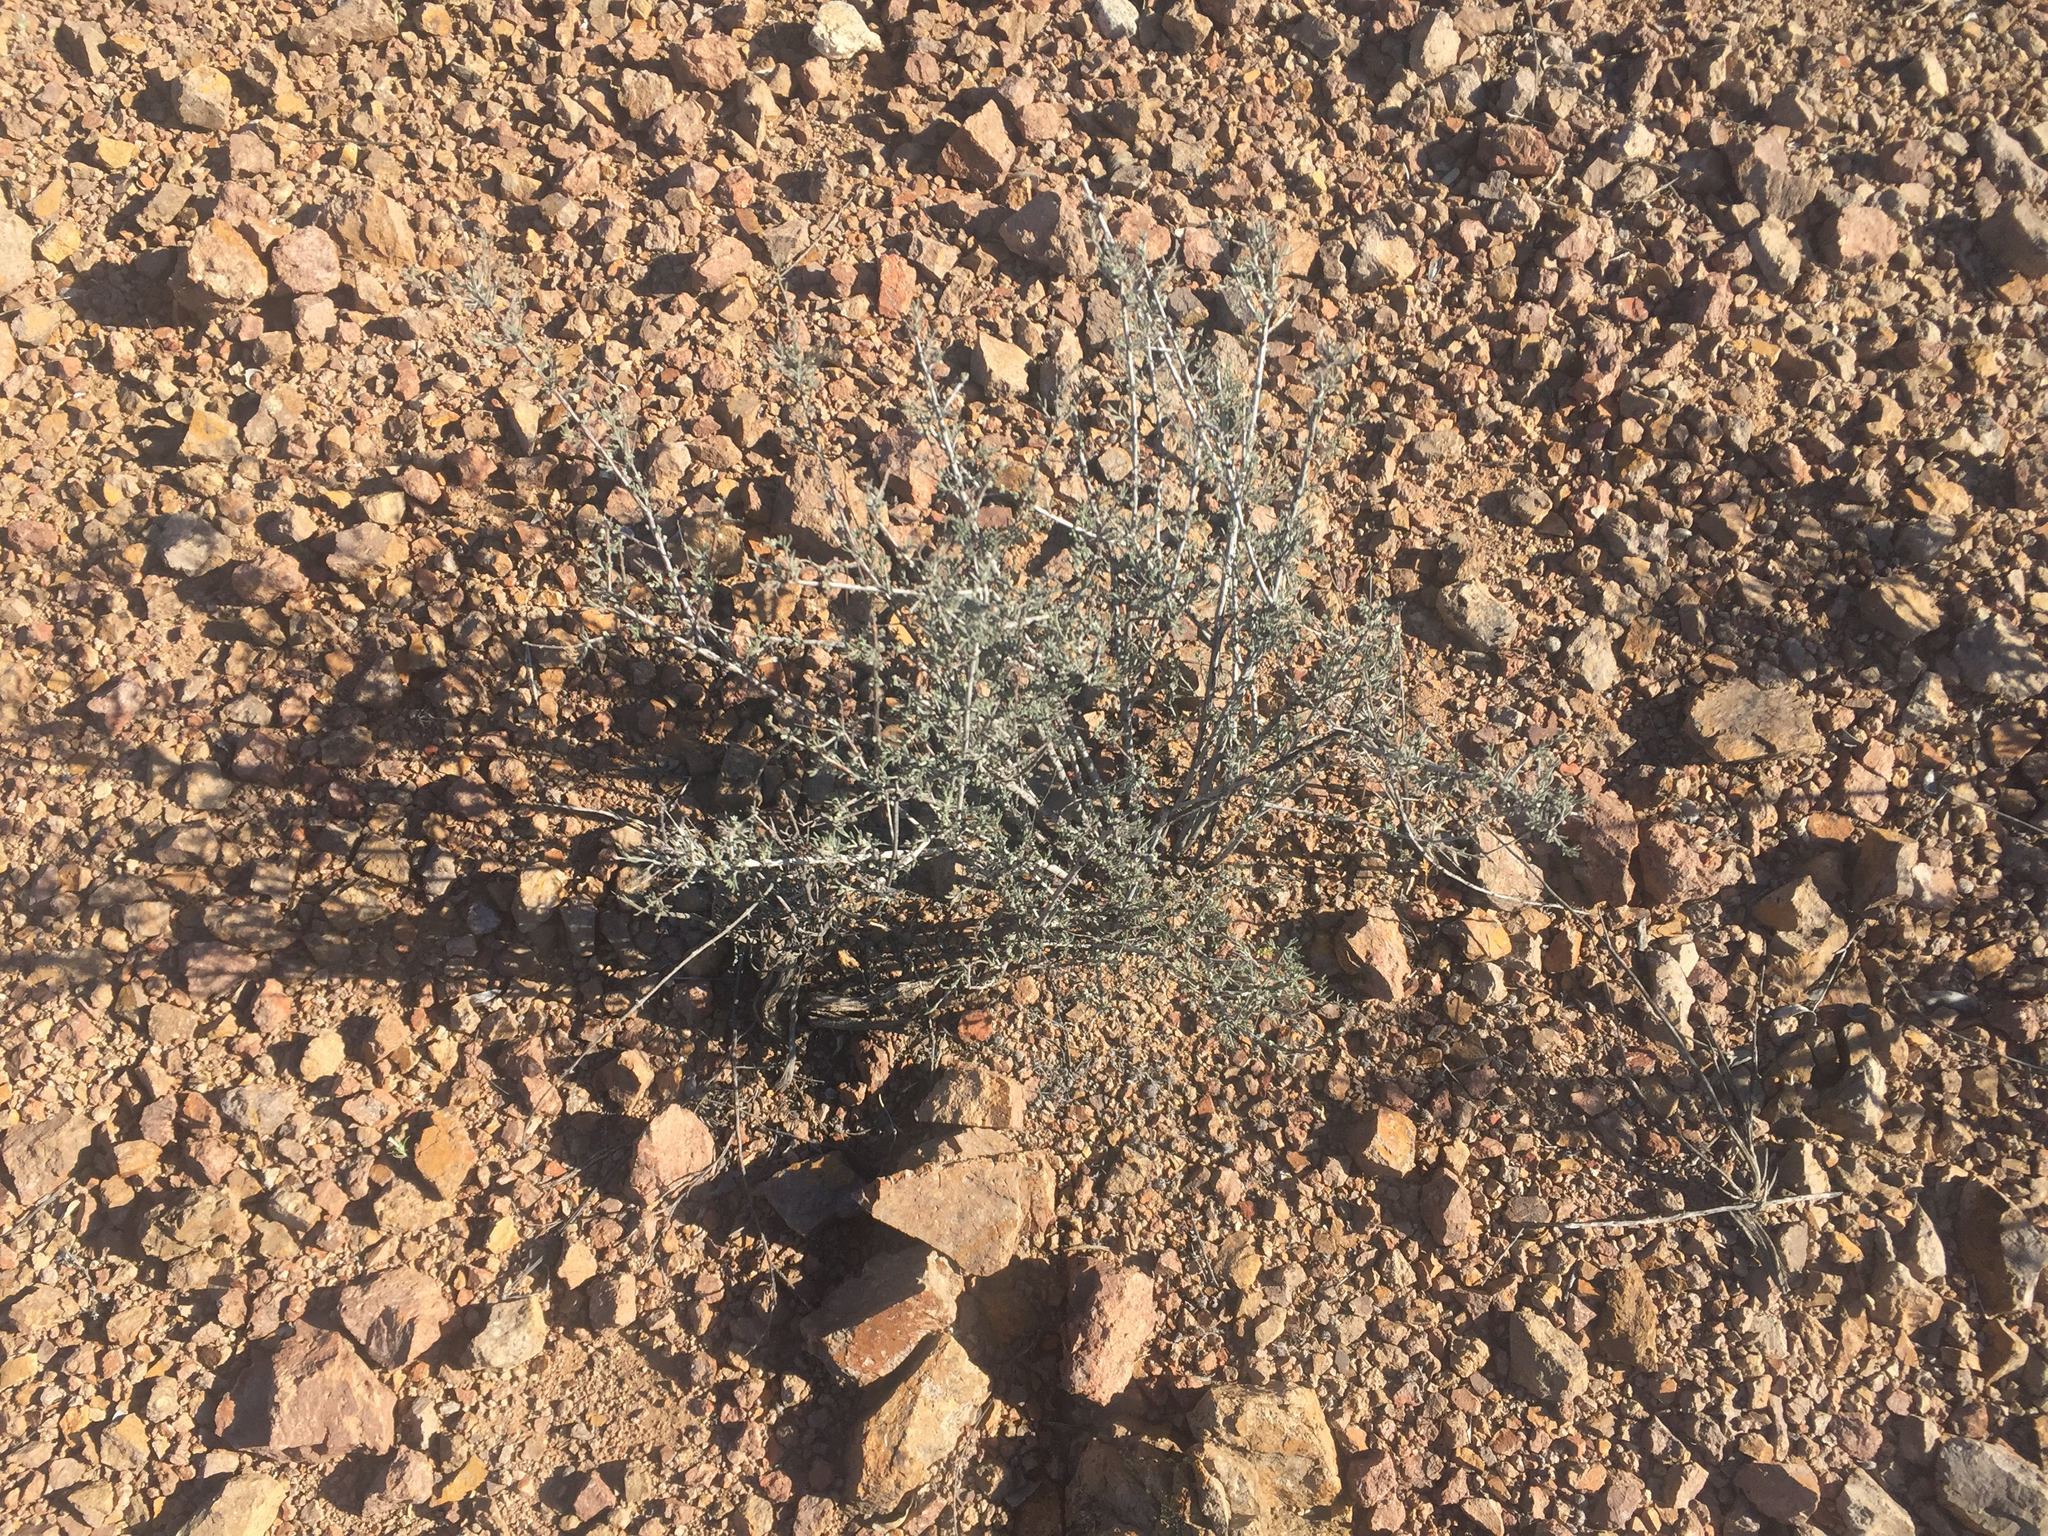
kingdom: Plantae
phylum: Tracheophyta
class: Magnoliopsida
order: Zygophyllales
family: Krameriaceae
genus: Krameria
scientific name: Krameria bicolor
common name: White ratany
